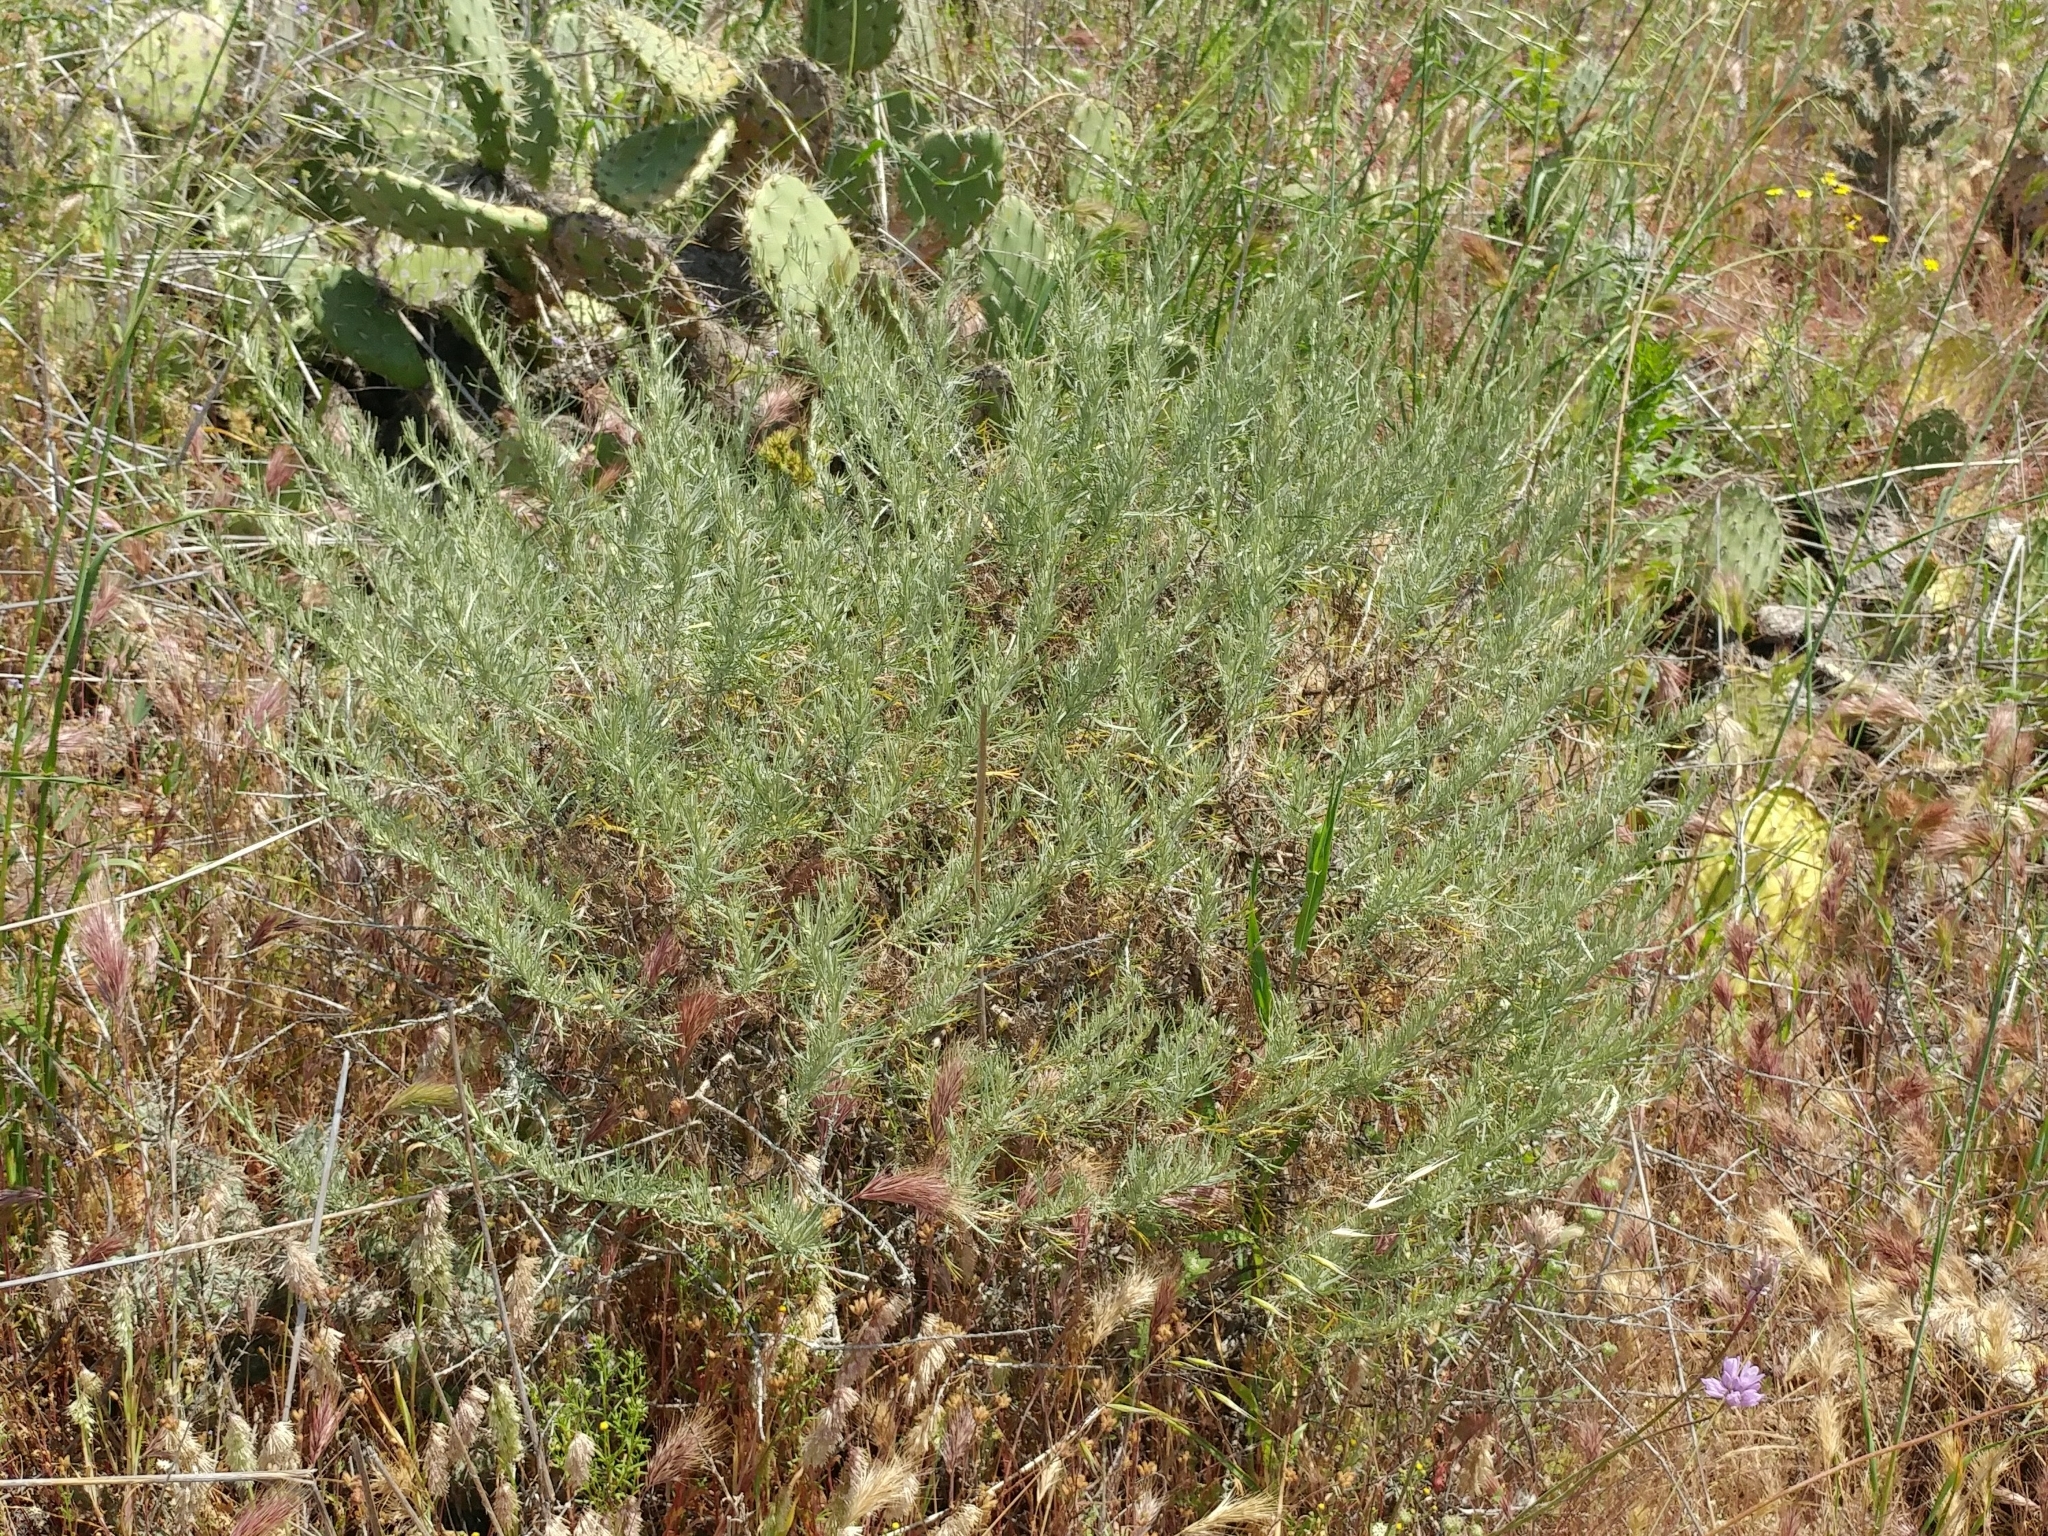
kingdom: Plantae
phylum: Tracheophyta
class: Magnoliopsida
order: Asterales
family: Asteraceae
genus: Artemisia
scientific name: Artemisia californica
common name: California sagebrush
